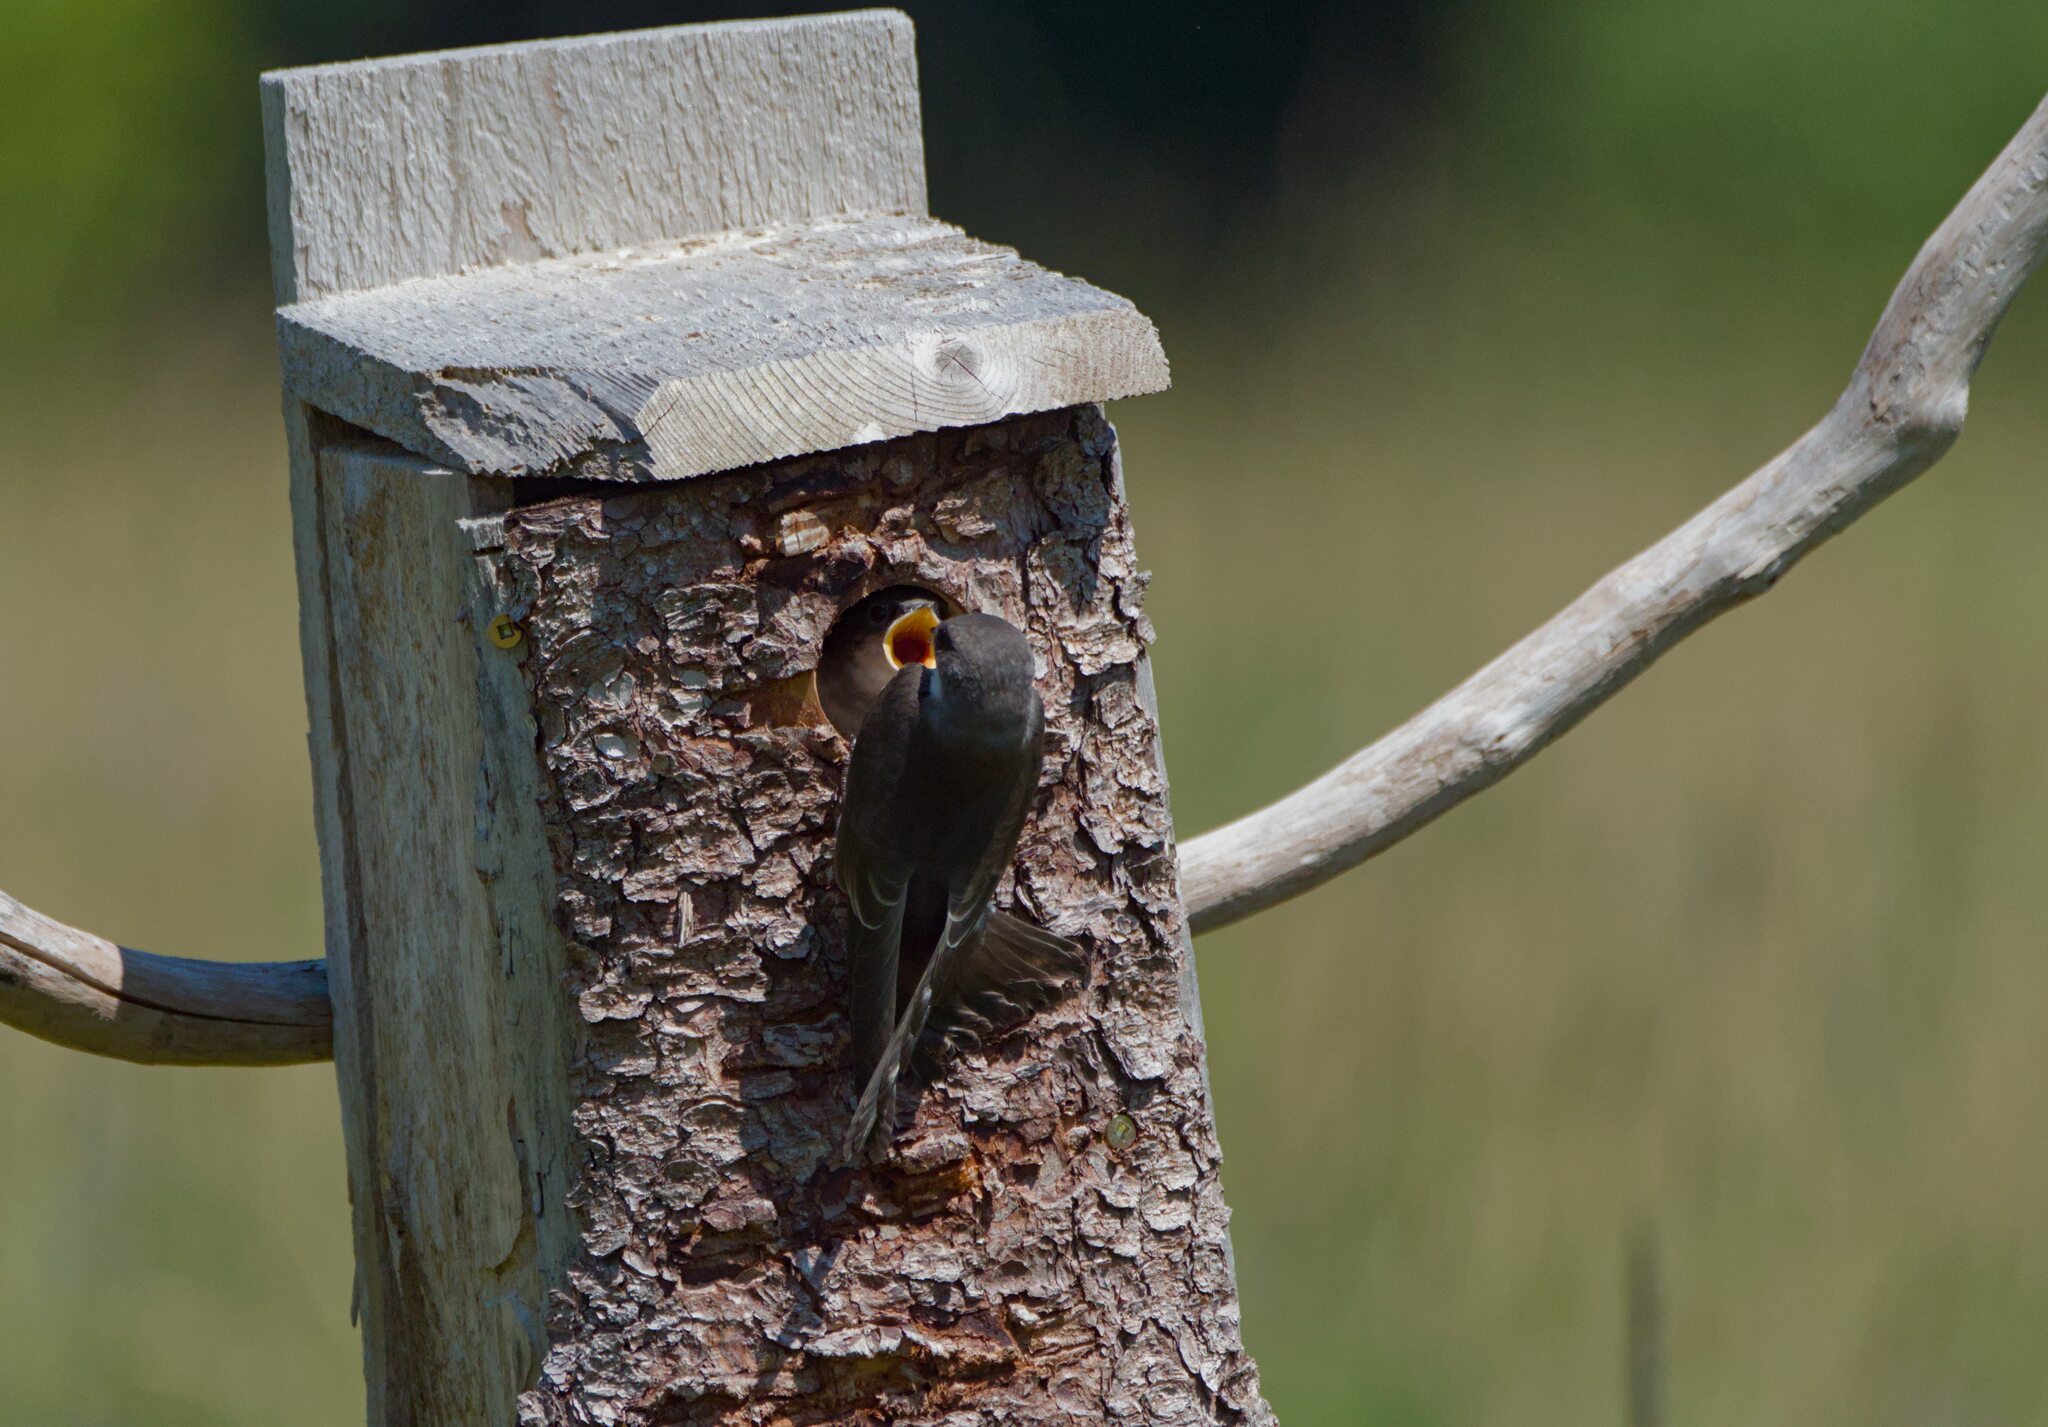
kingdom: Animalia
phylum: Chordata
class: Aves
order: Passeriformes
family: Hirundinidae
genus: Tachycineta
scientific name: Tachycineta bicolor
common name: Tree swallow
